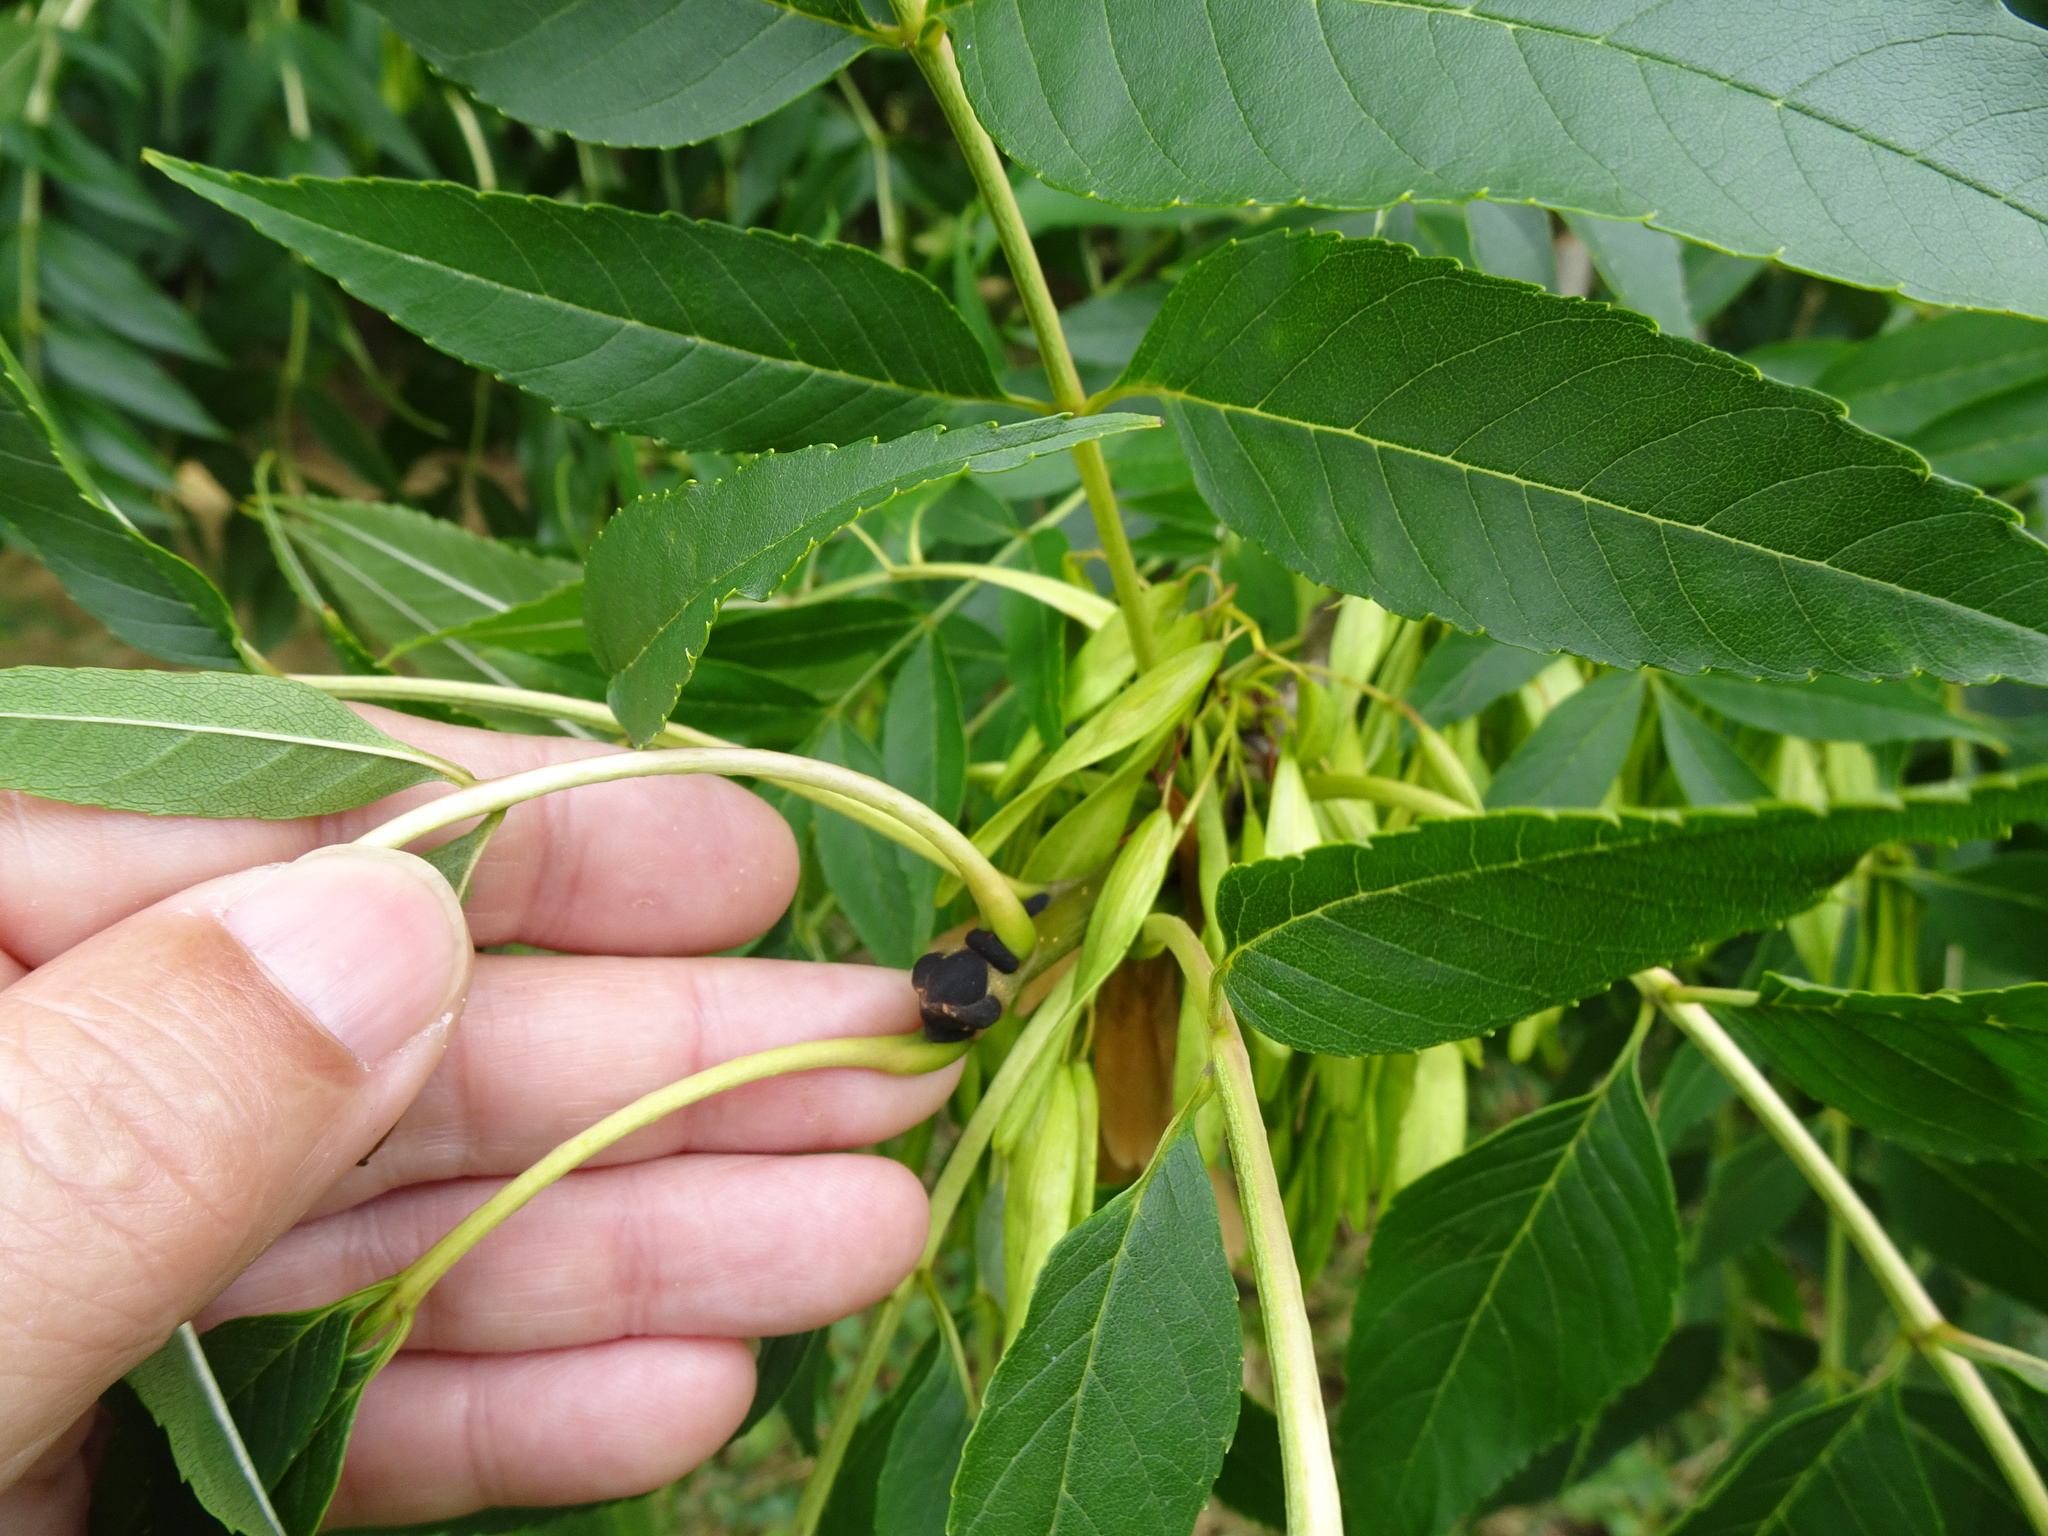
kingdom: Plantae
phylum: Tracheophyta
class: Magnoliopsida
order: Lamiales
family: Oleaceae
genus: Fraxinus
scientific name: Fraxinus excelsior
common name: European ash
